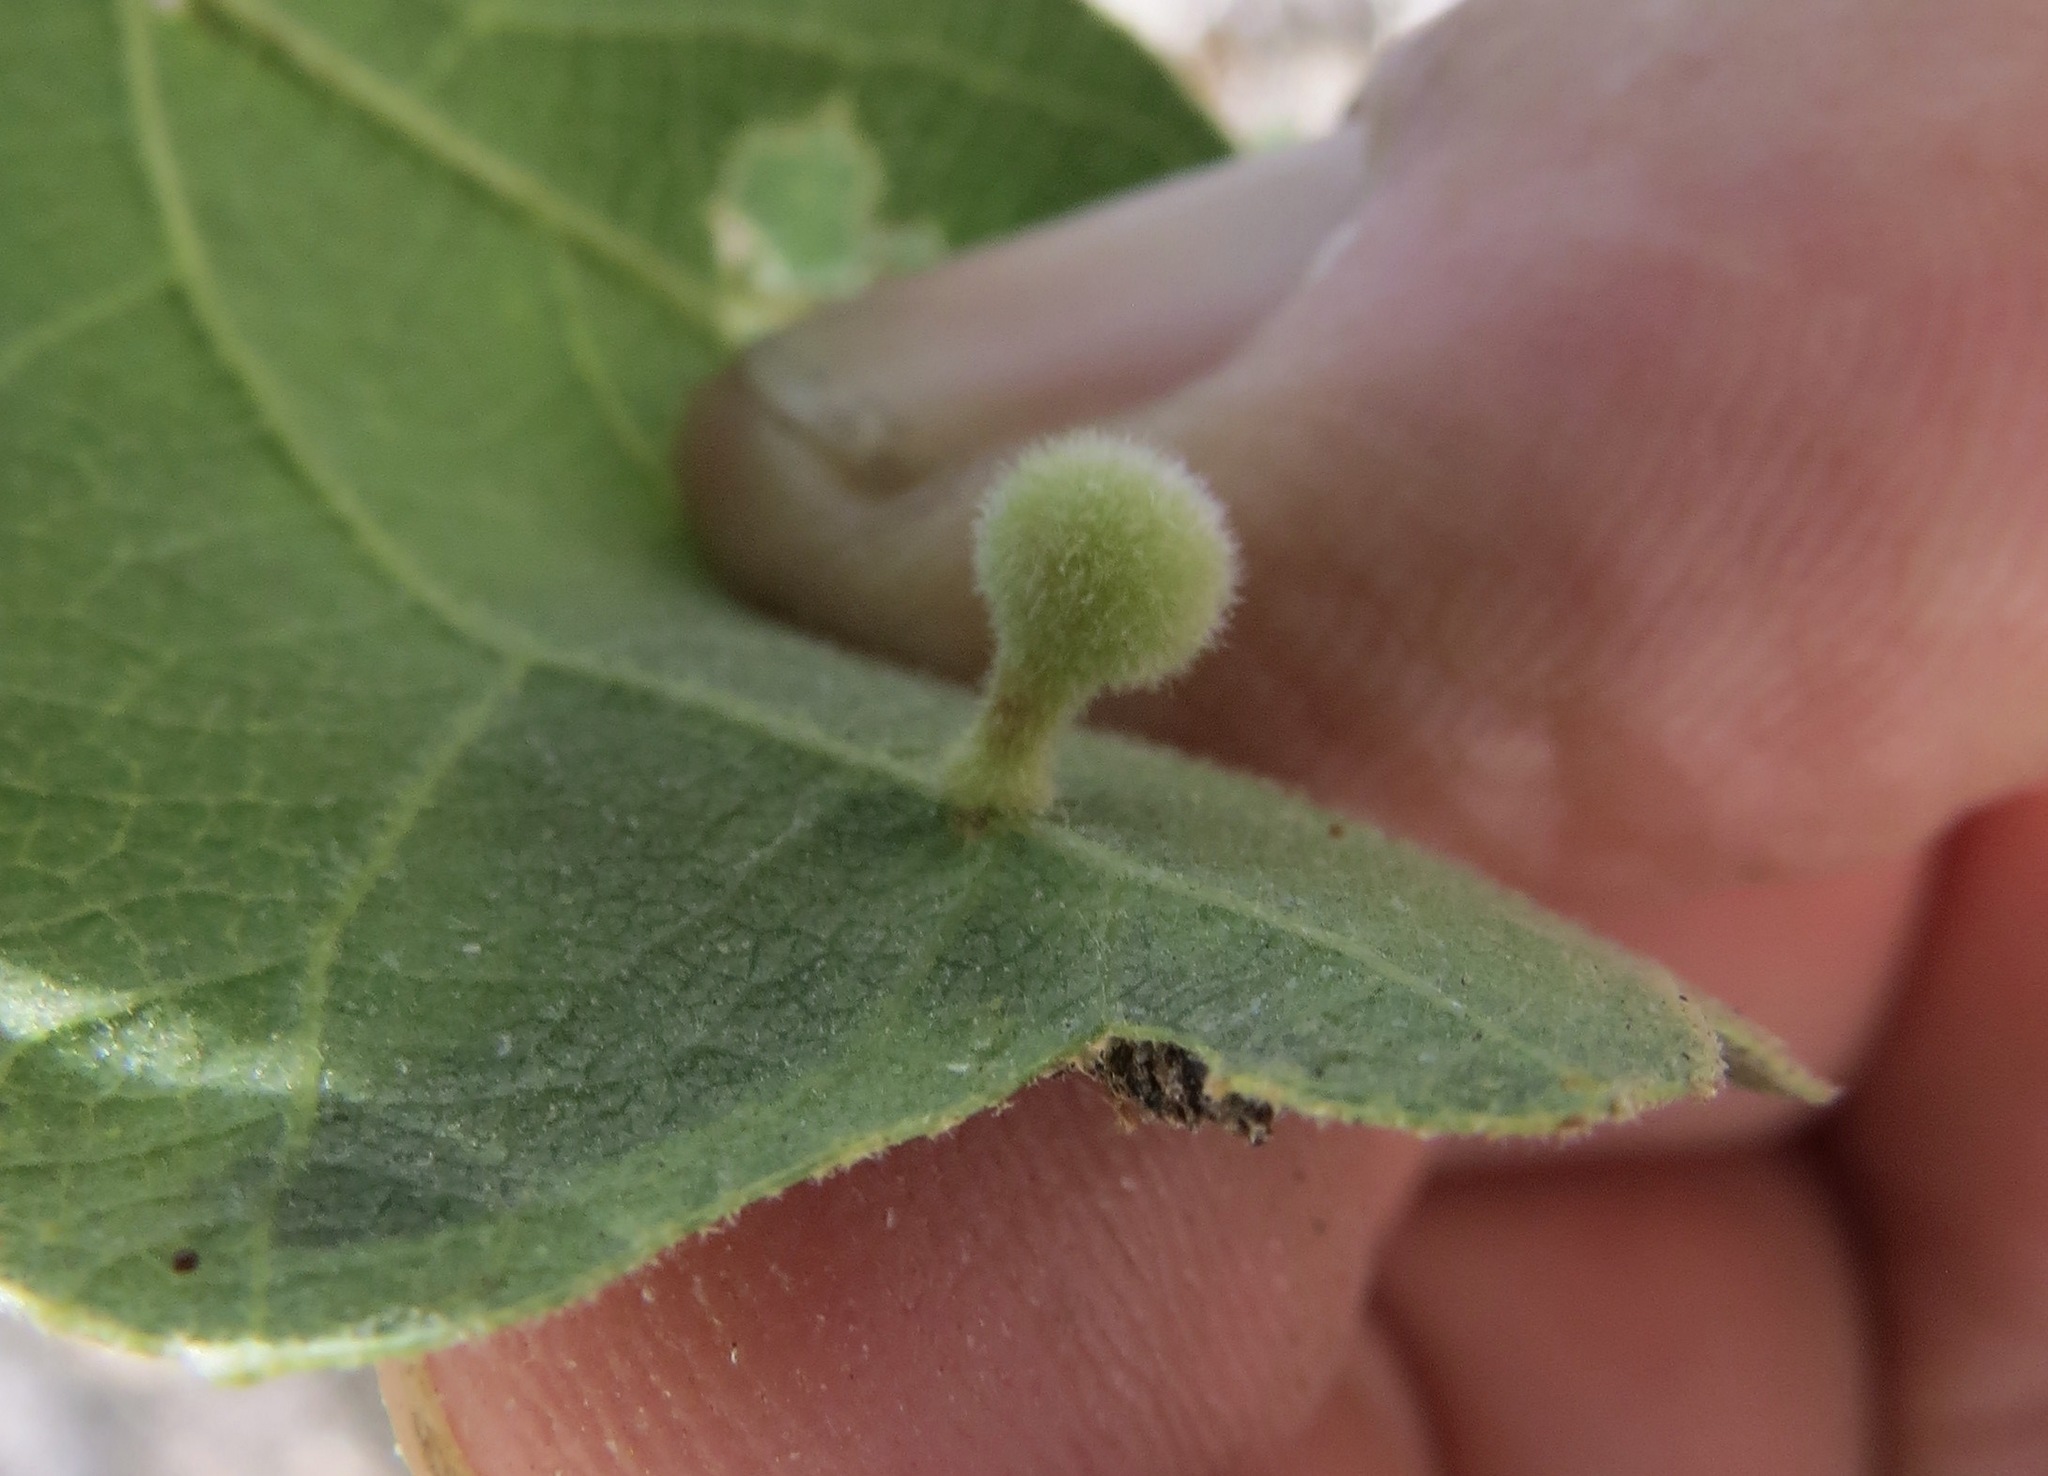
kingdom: Animalia
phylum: Arthropoda
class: Insecta
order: Hymenoptera
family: Cynipidae
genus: Trigonaspis
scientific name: Trigonaspis
